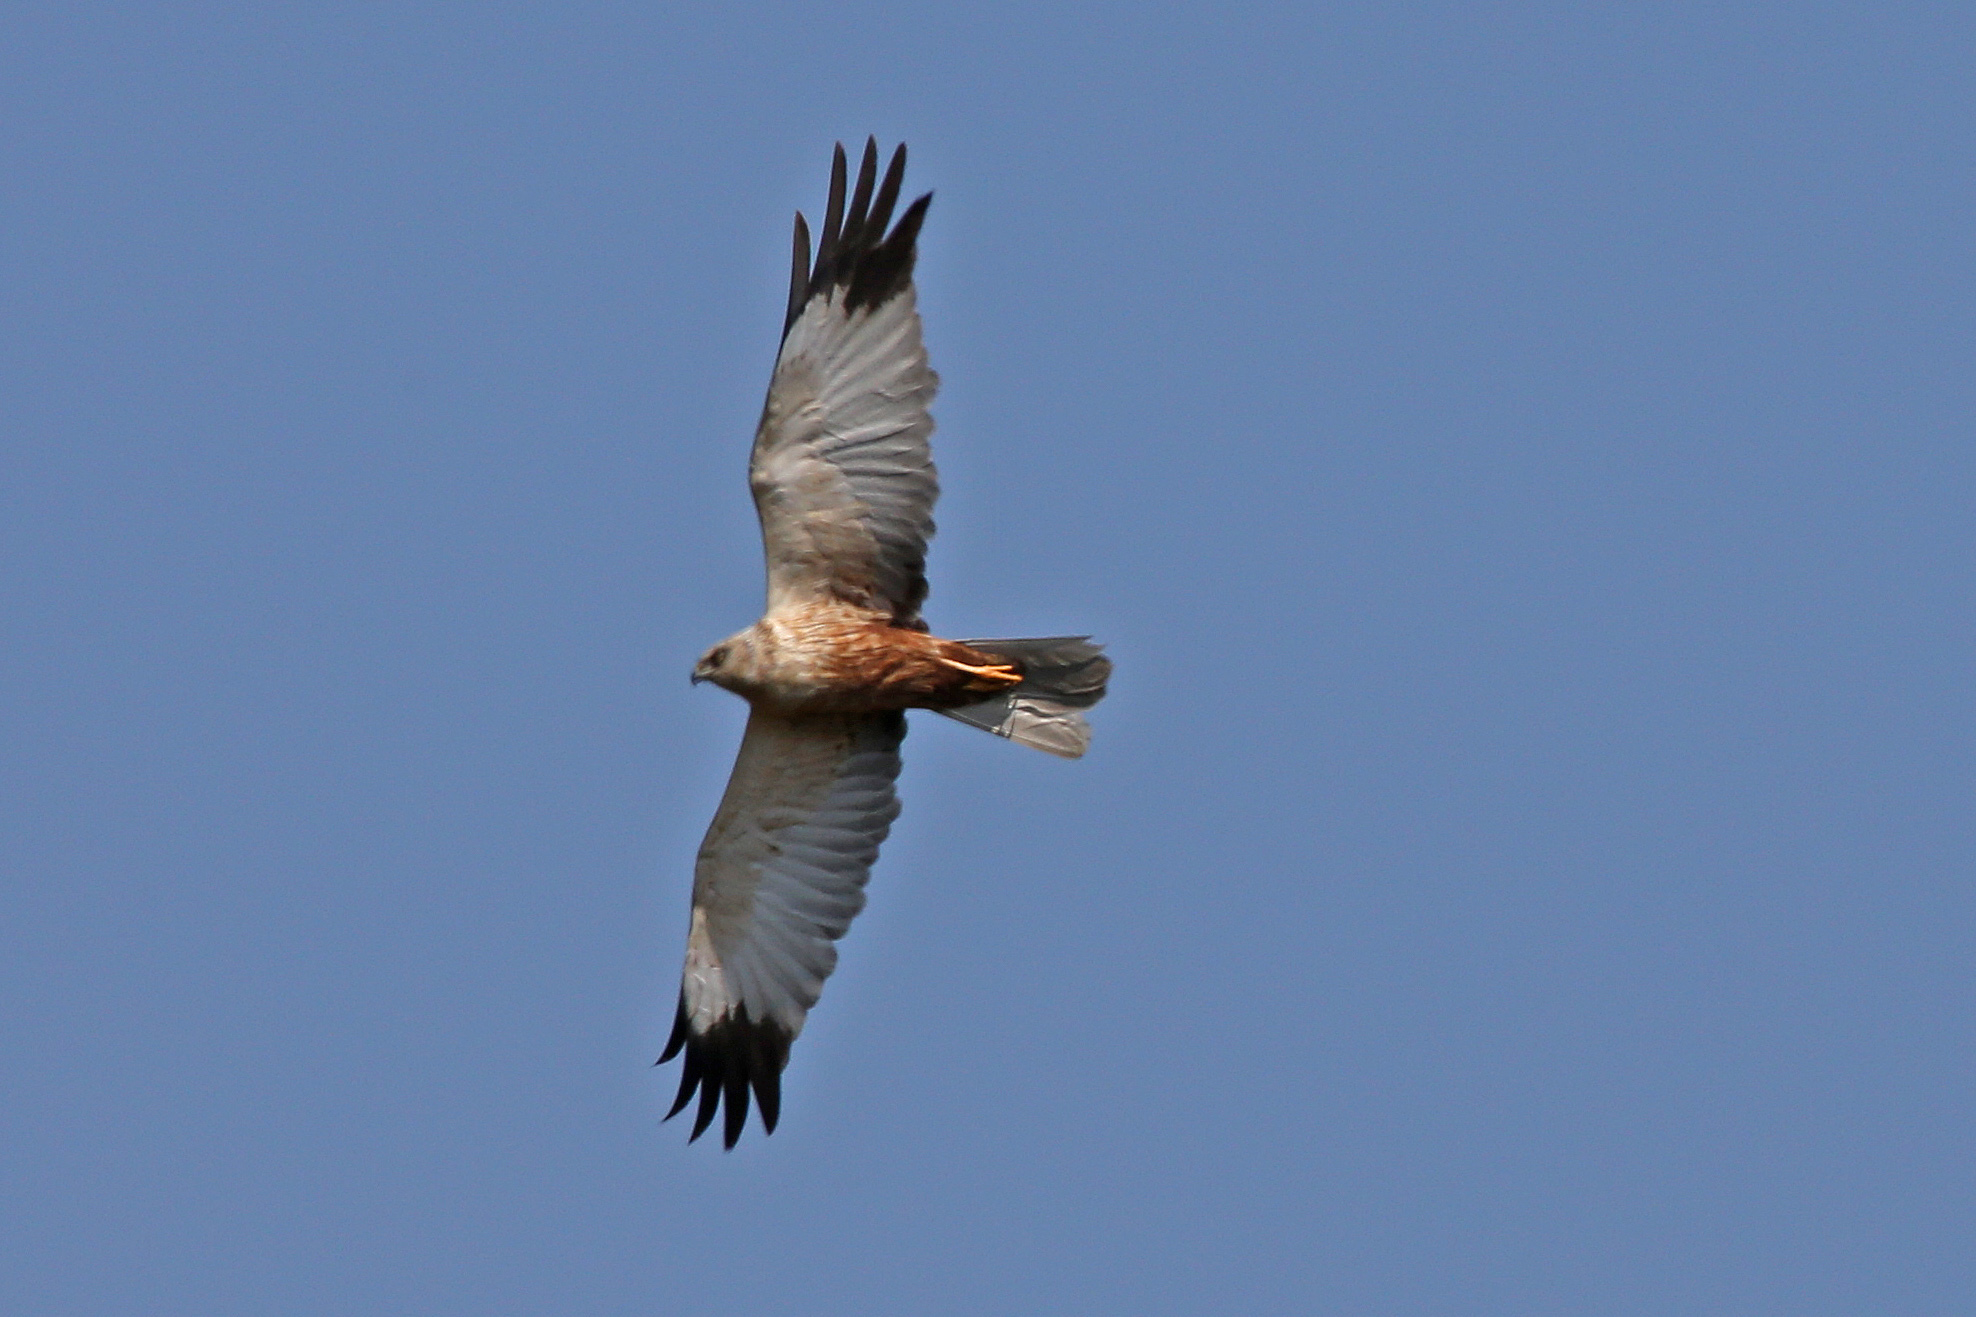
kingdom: Animalia
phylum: Chordata
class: Aves
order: Accipitriformes
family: Accipitridae
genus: Circus
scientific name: Circus aeruginosus
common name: Western marsh harrier
